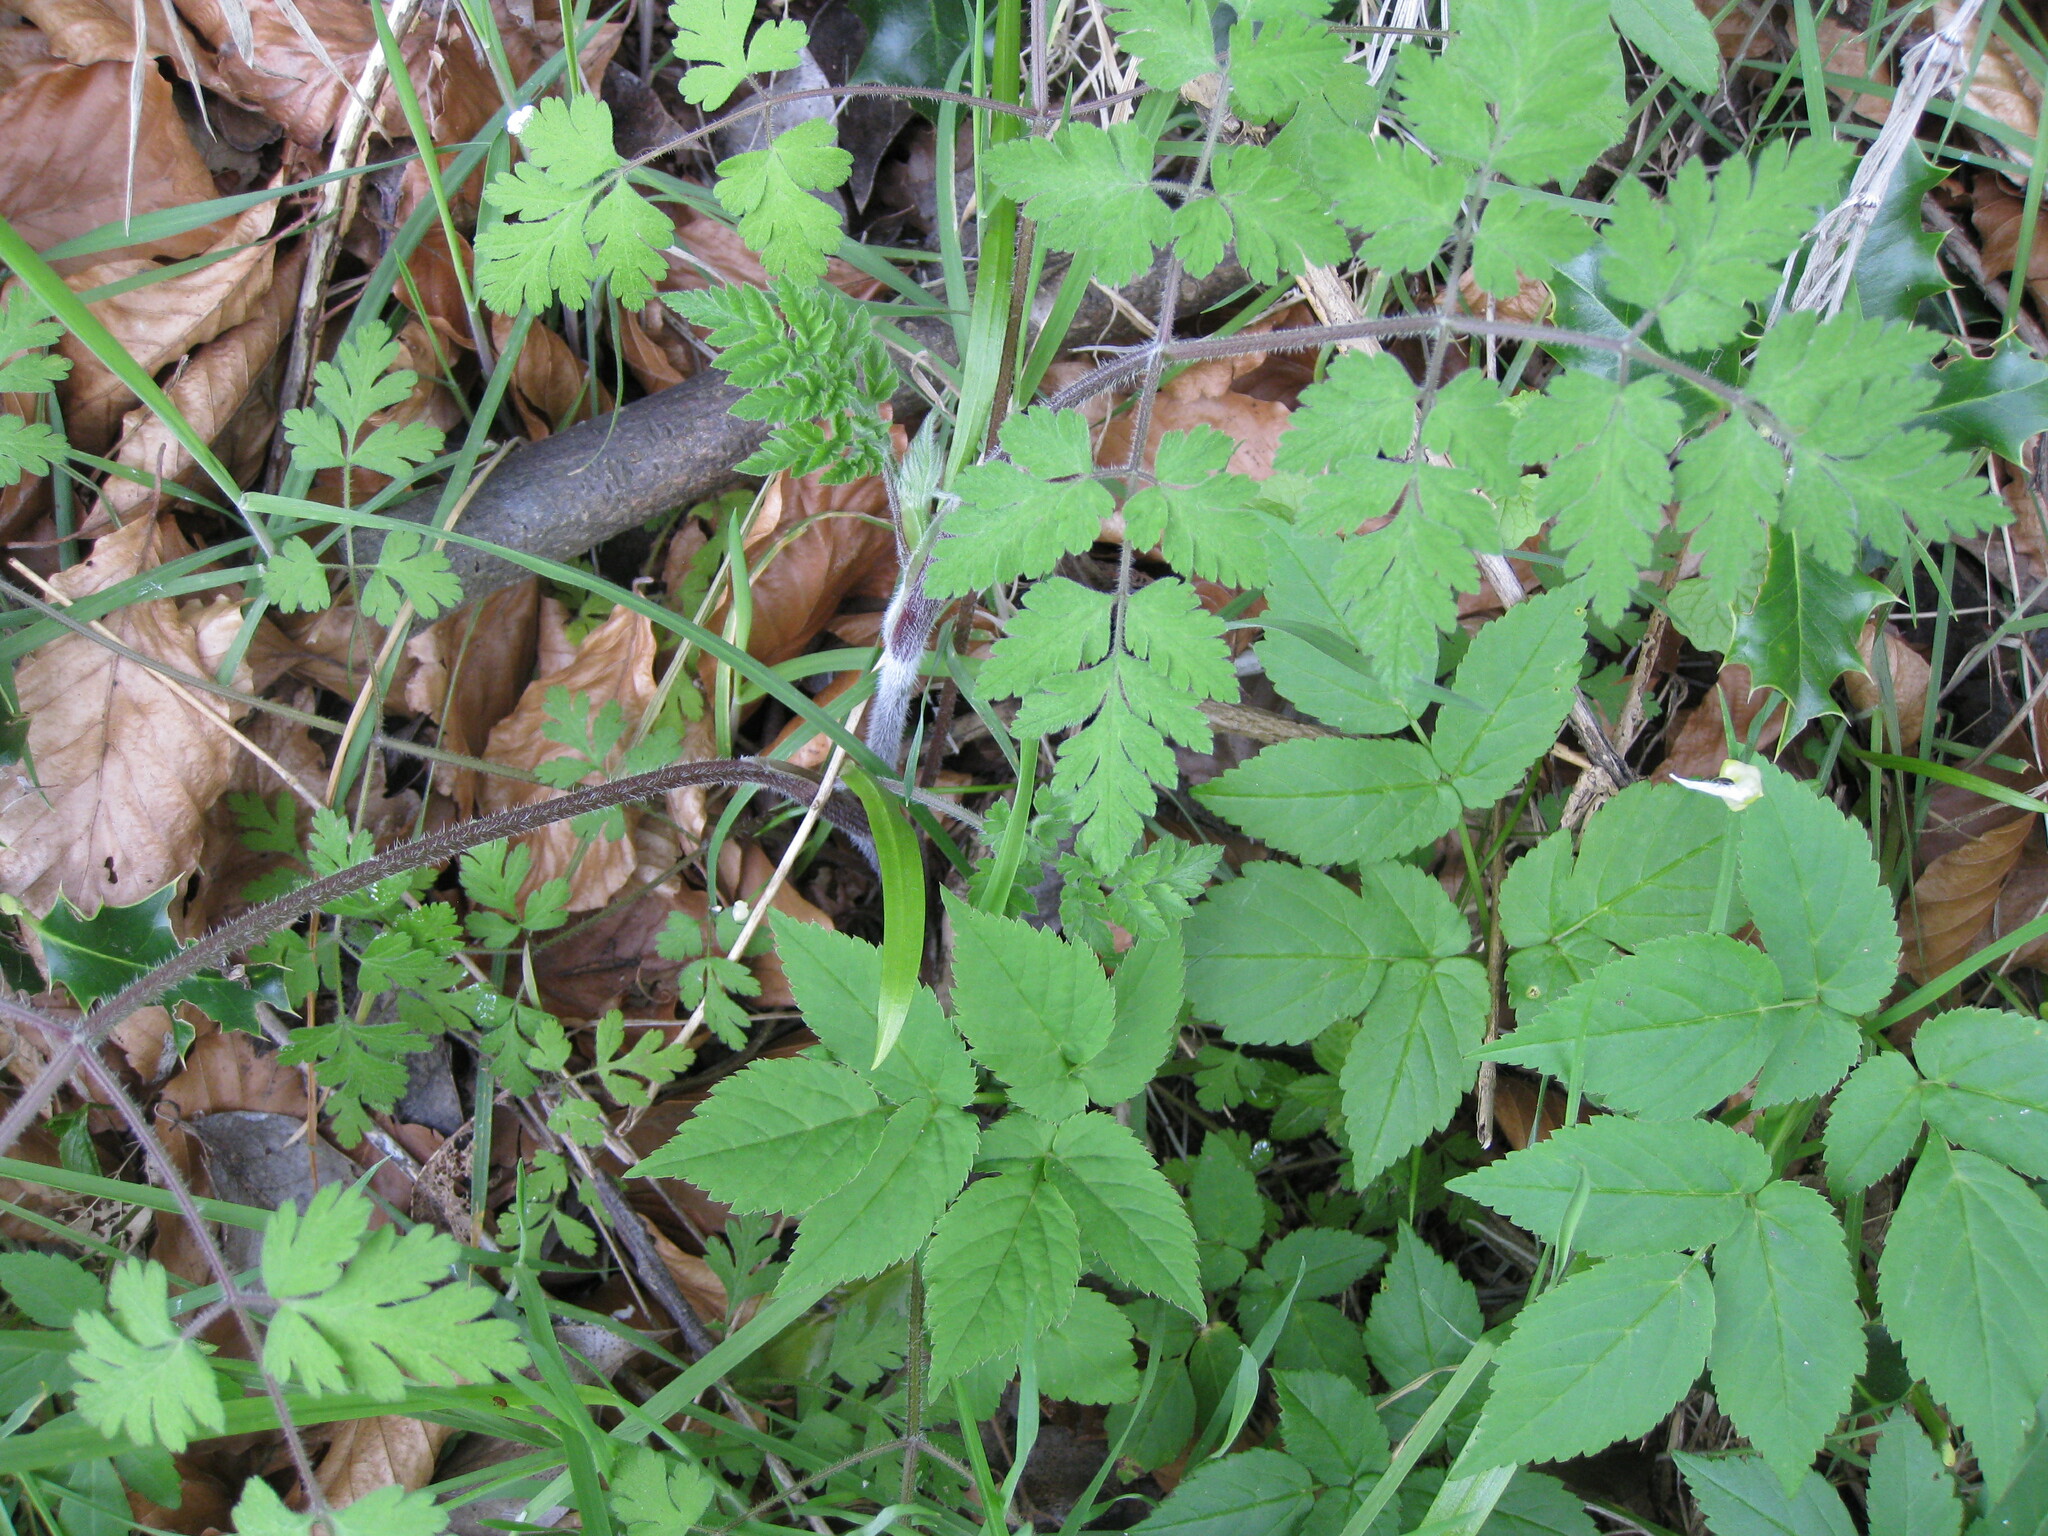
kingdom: Plantae
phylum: Tracheophyta
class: Magnoliopsida
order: Apiales
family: Apiaceae
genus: Chaerophyllum
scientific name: Chaerophyllum temulum
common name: Rough chervil
